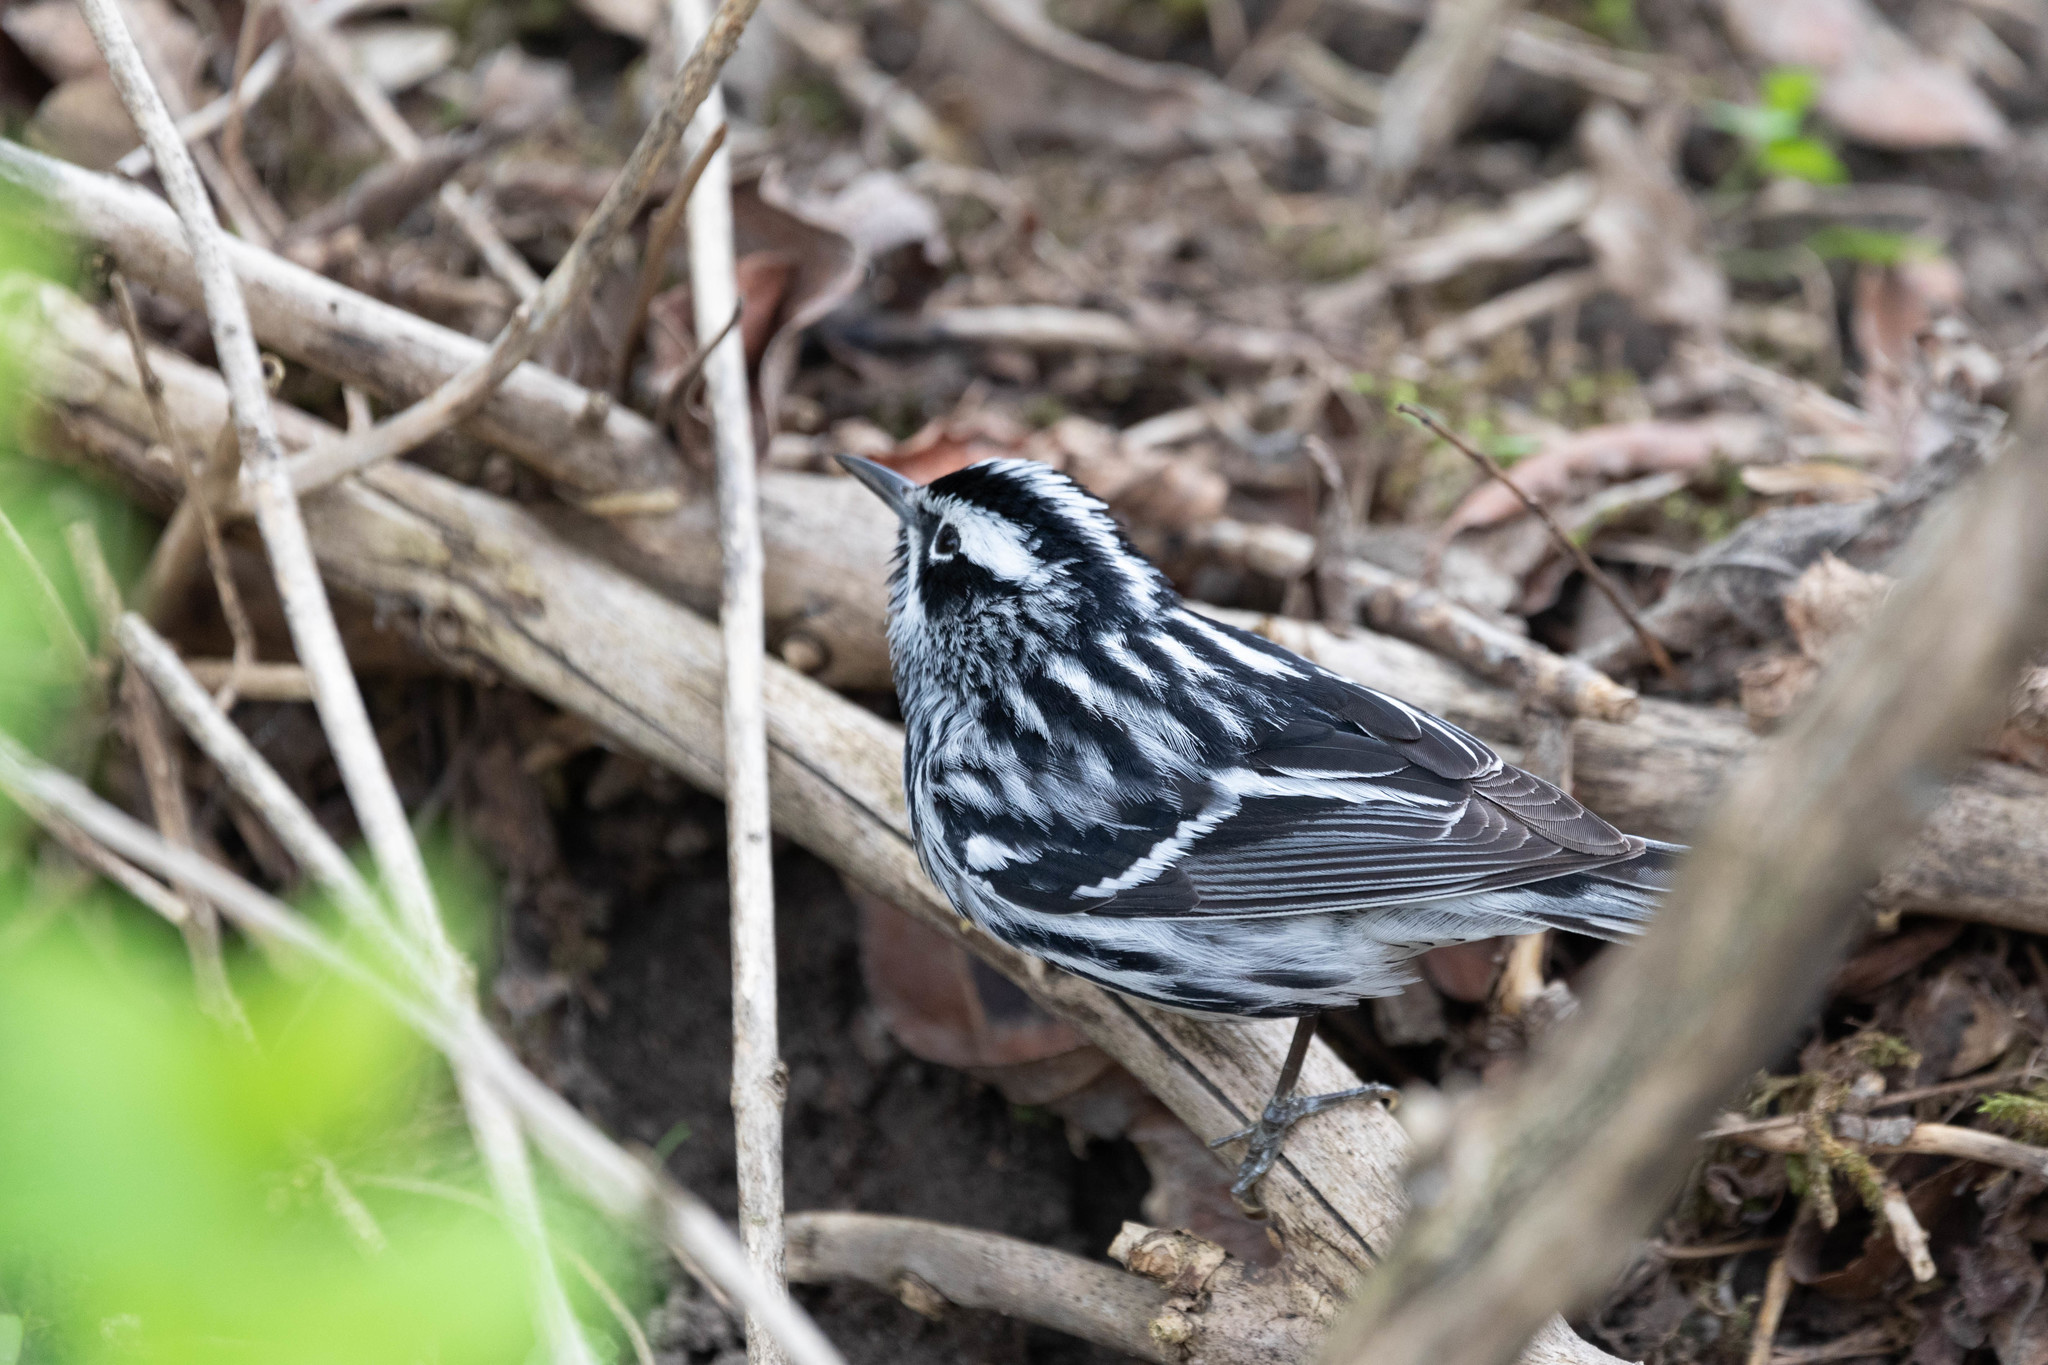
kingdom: Animalia
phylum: Chordata
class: Aves
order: Passeriformes
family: Parulidae
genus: Mniotilta
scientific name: Mniotilta varia
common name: Black-and-white warbler
